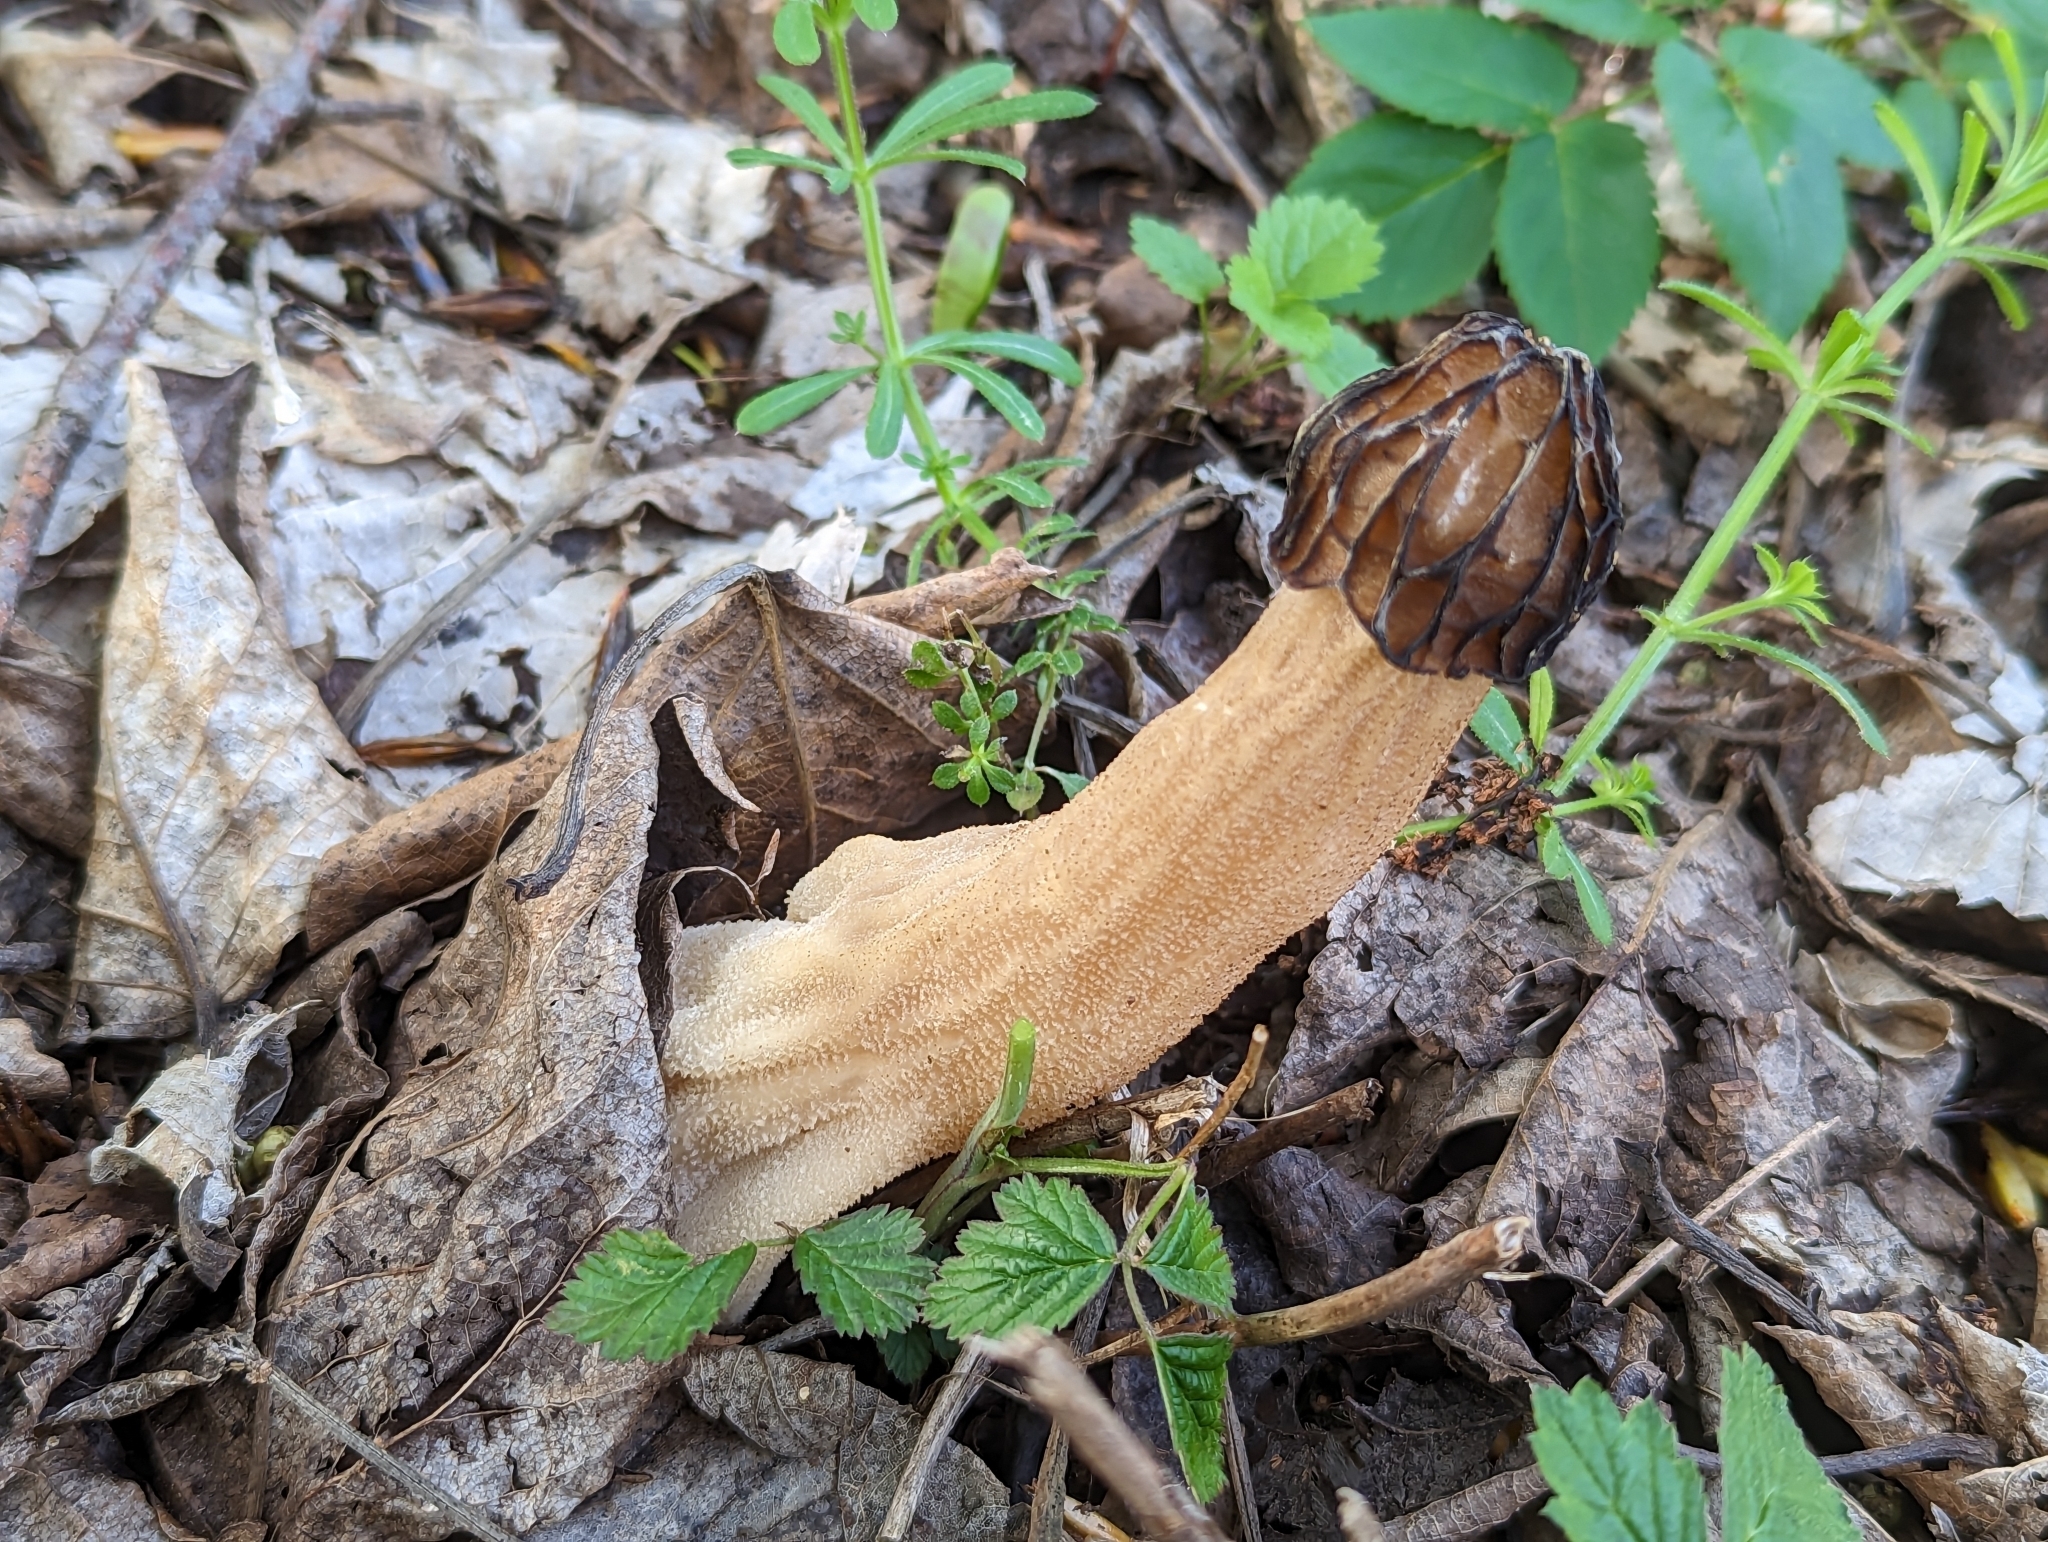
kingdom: Fungi
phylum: Ascomycota
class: Pezizomycetes
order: Pezizales
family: Morchellaceae
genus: Morchella
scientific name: Morchella semilibera
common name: Semifree morel
